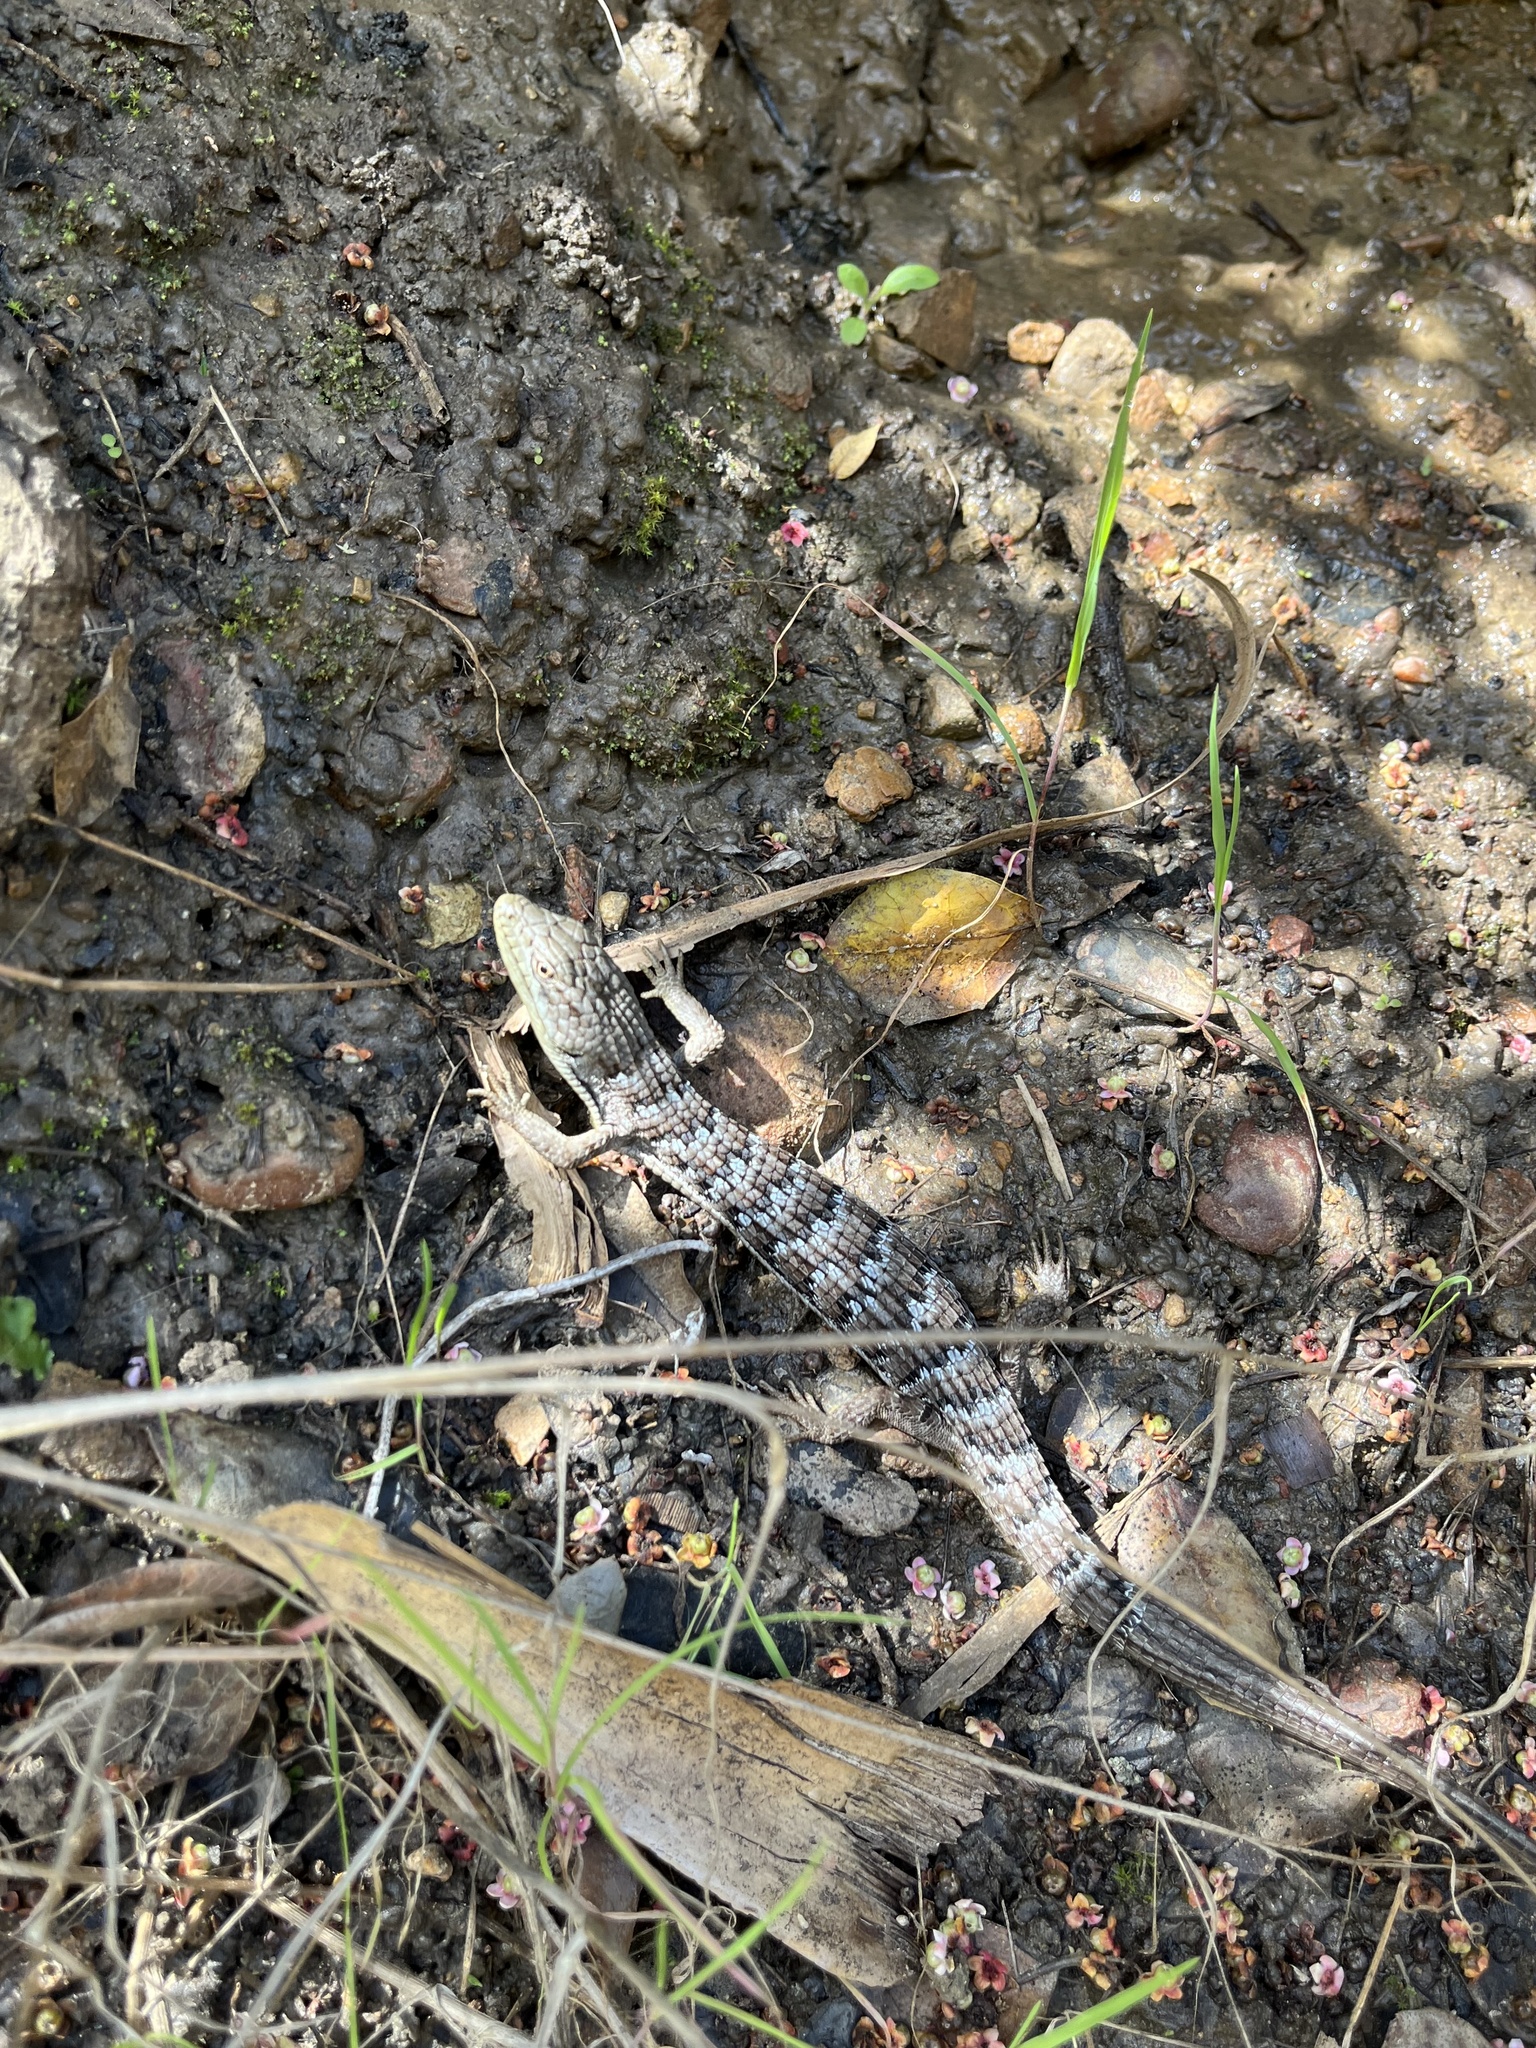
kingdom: Animalia
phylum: Chordata
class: Squamata
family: Anguidae
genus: Elgaria
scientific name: Elgaria multicarinata
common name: Southern alligator lizard
